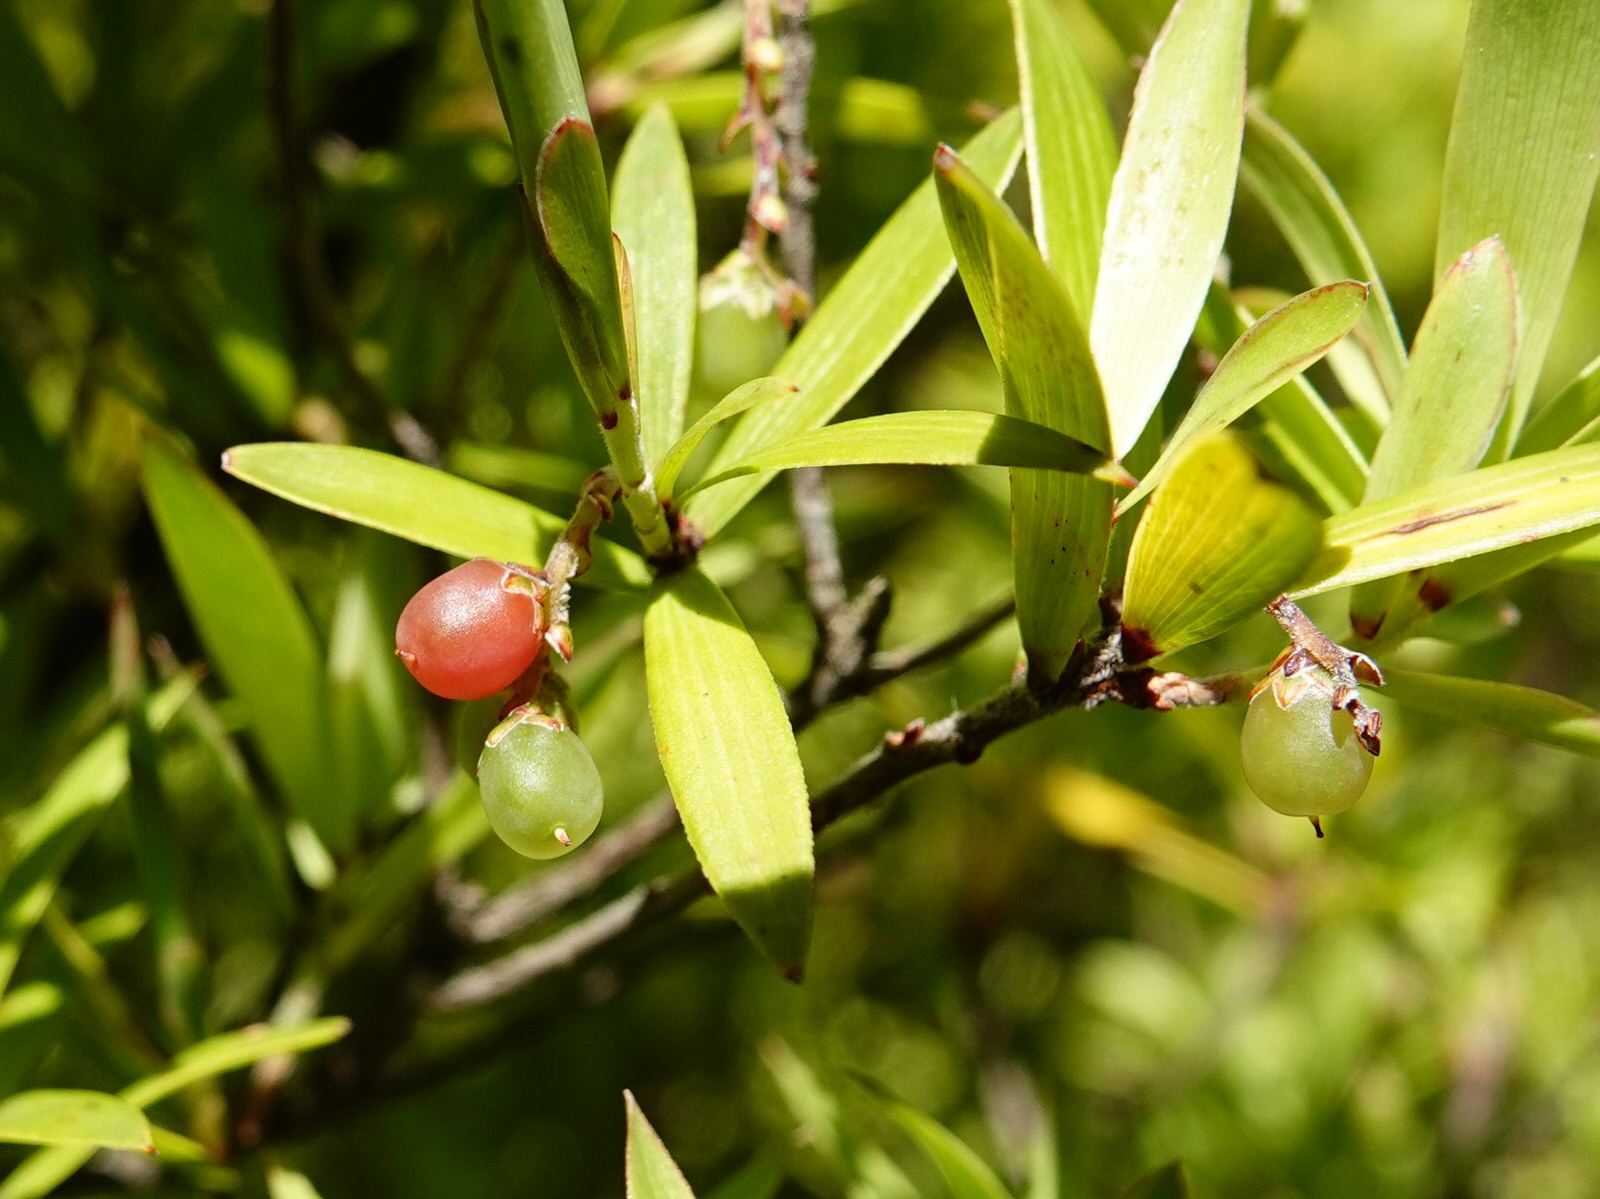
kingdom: Plantae
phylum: Tracheophyta
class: Magnoliopsida
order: Ericales
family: Ericaceae
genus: Leucopogon
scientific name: Leucopogon fasciculatus
